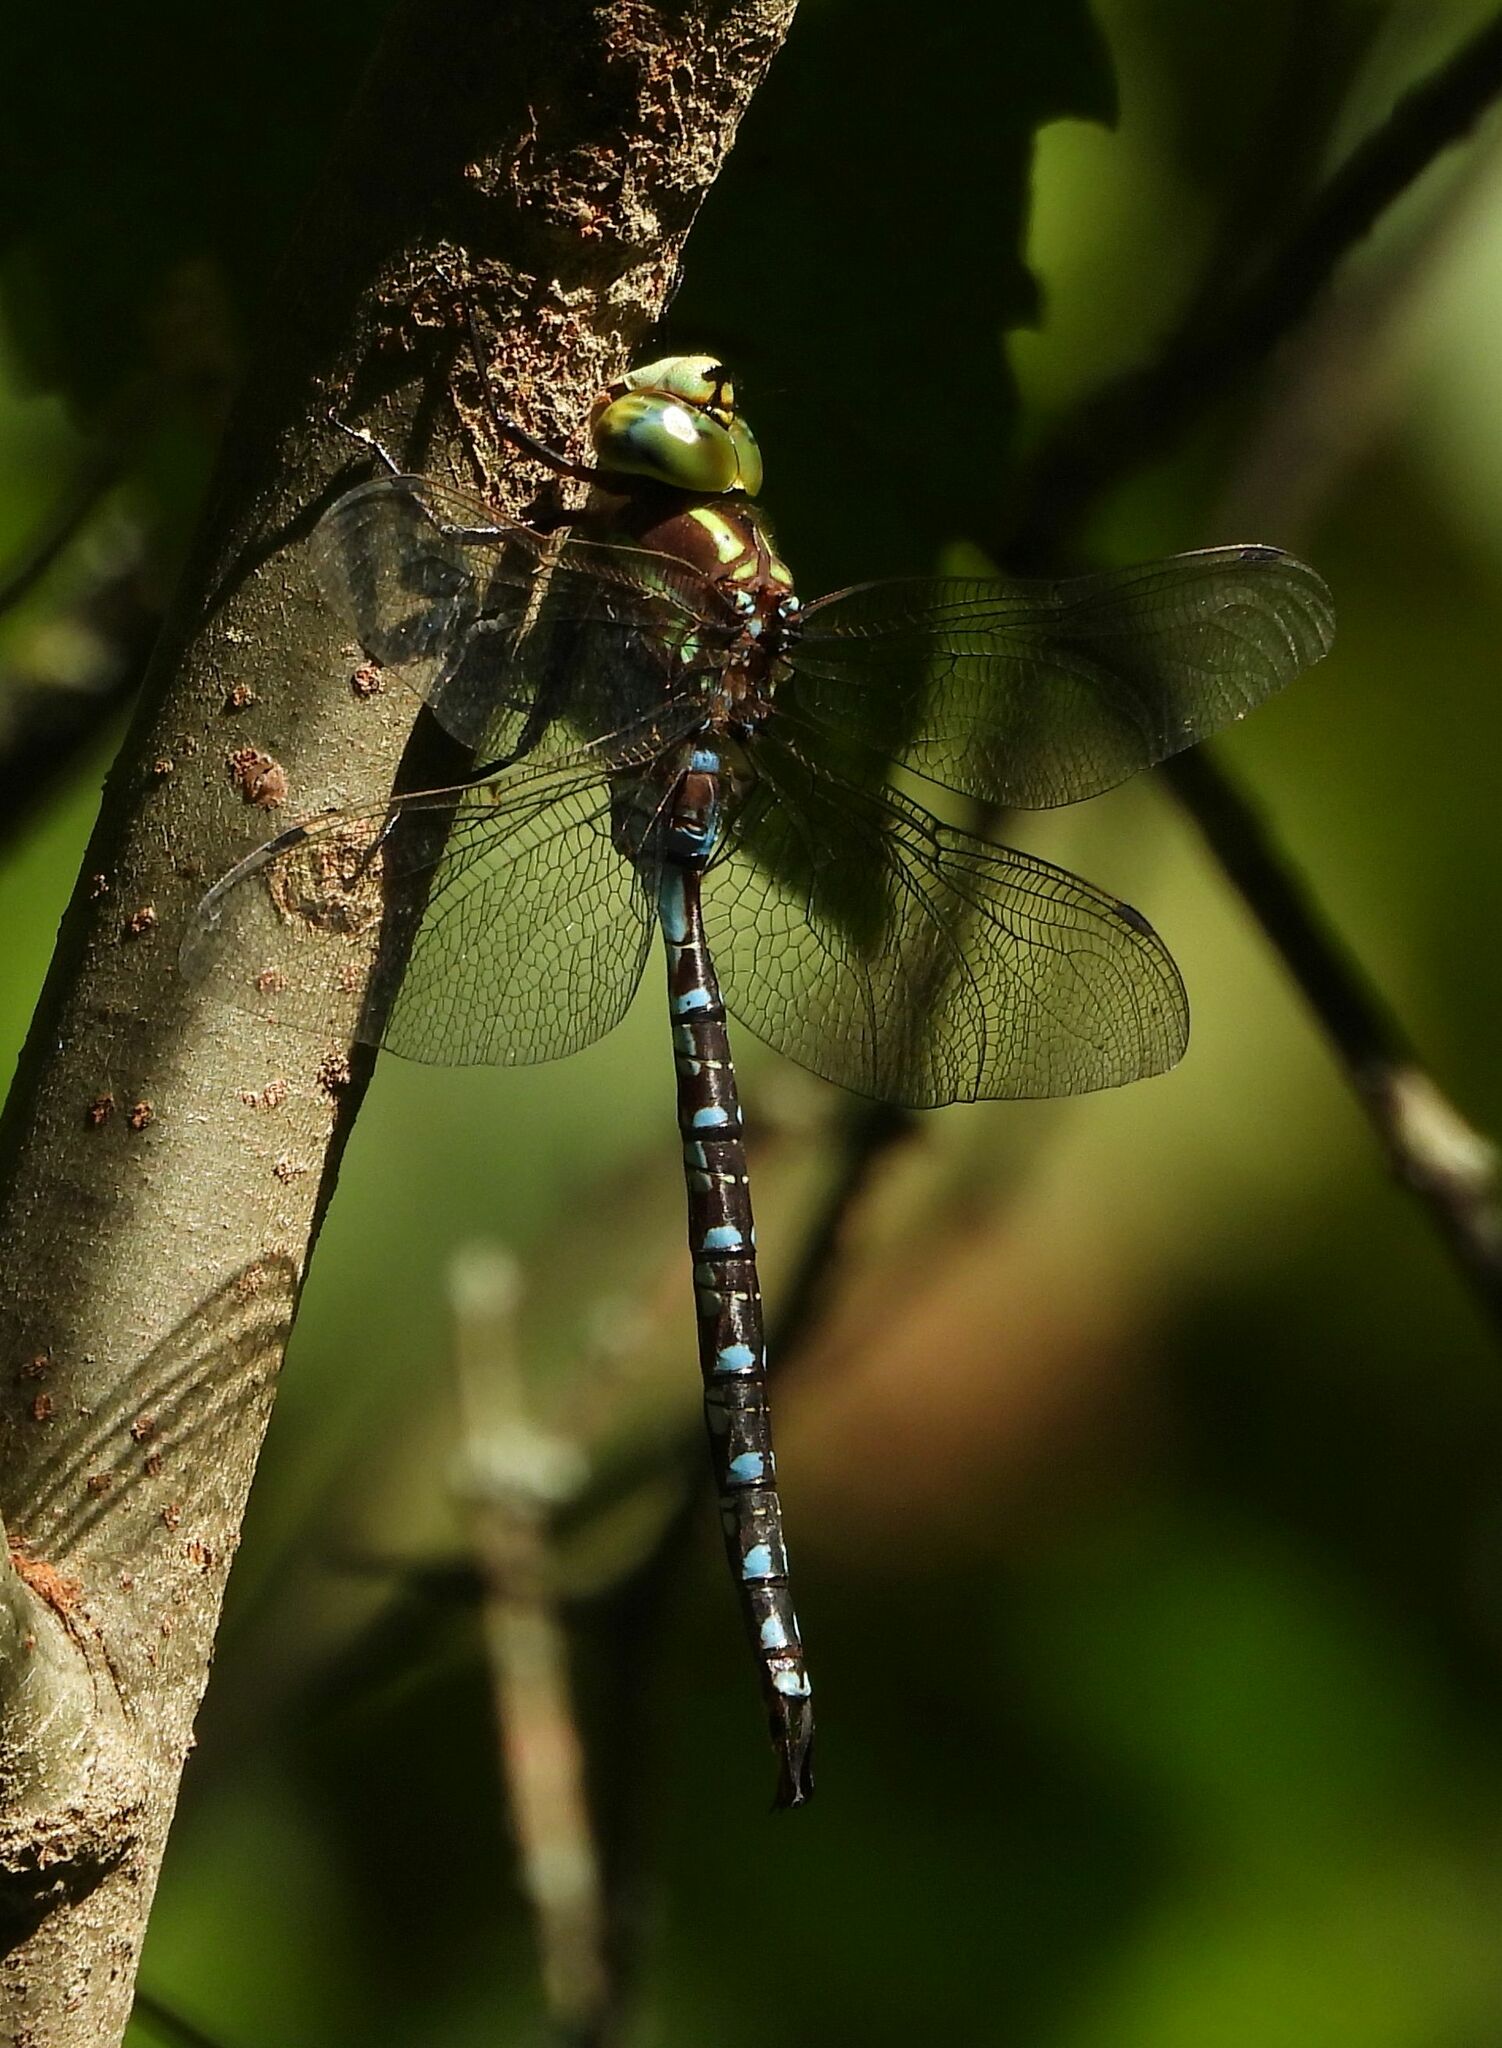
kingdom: Animalia
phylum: Arthropoda
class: Insecta
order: Odonata
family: Aeshnidae
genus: Aeshna
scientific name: Aeshna constricta
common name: Lance-tipped darner
